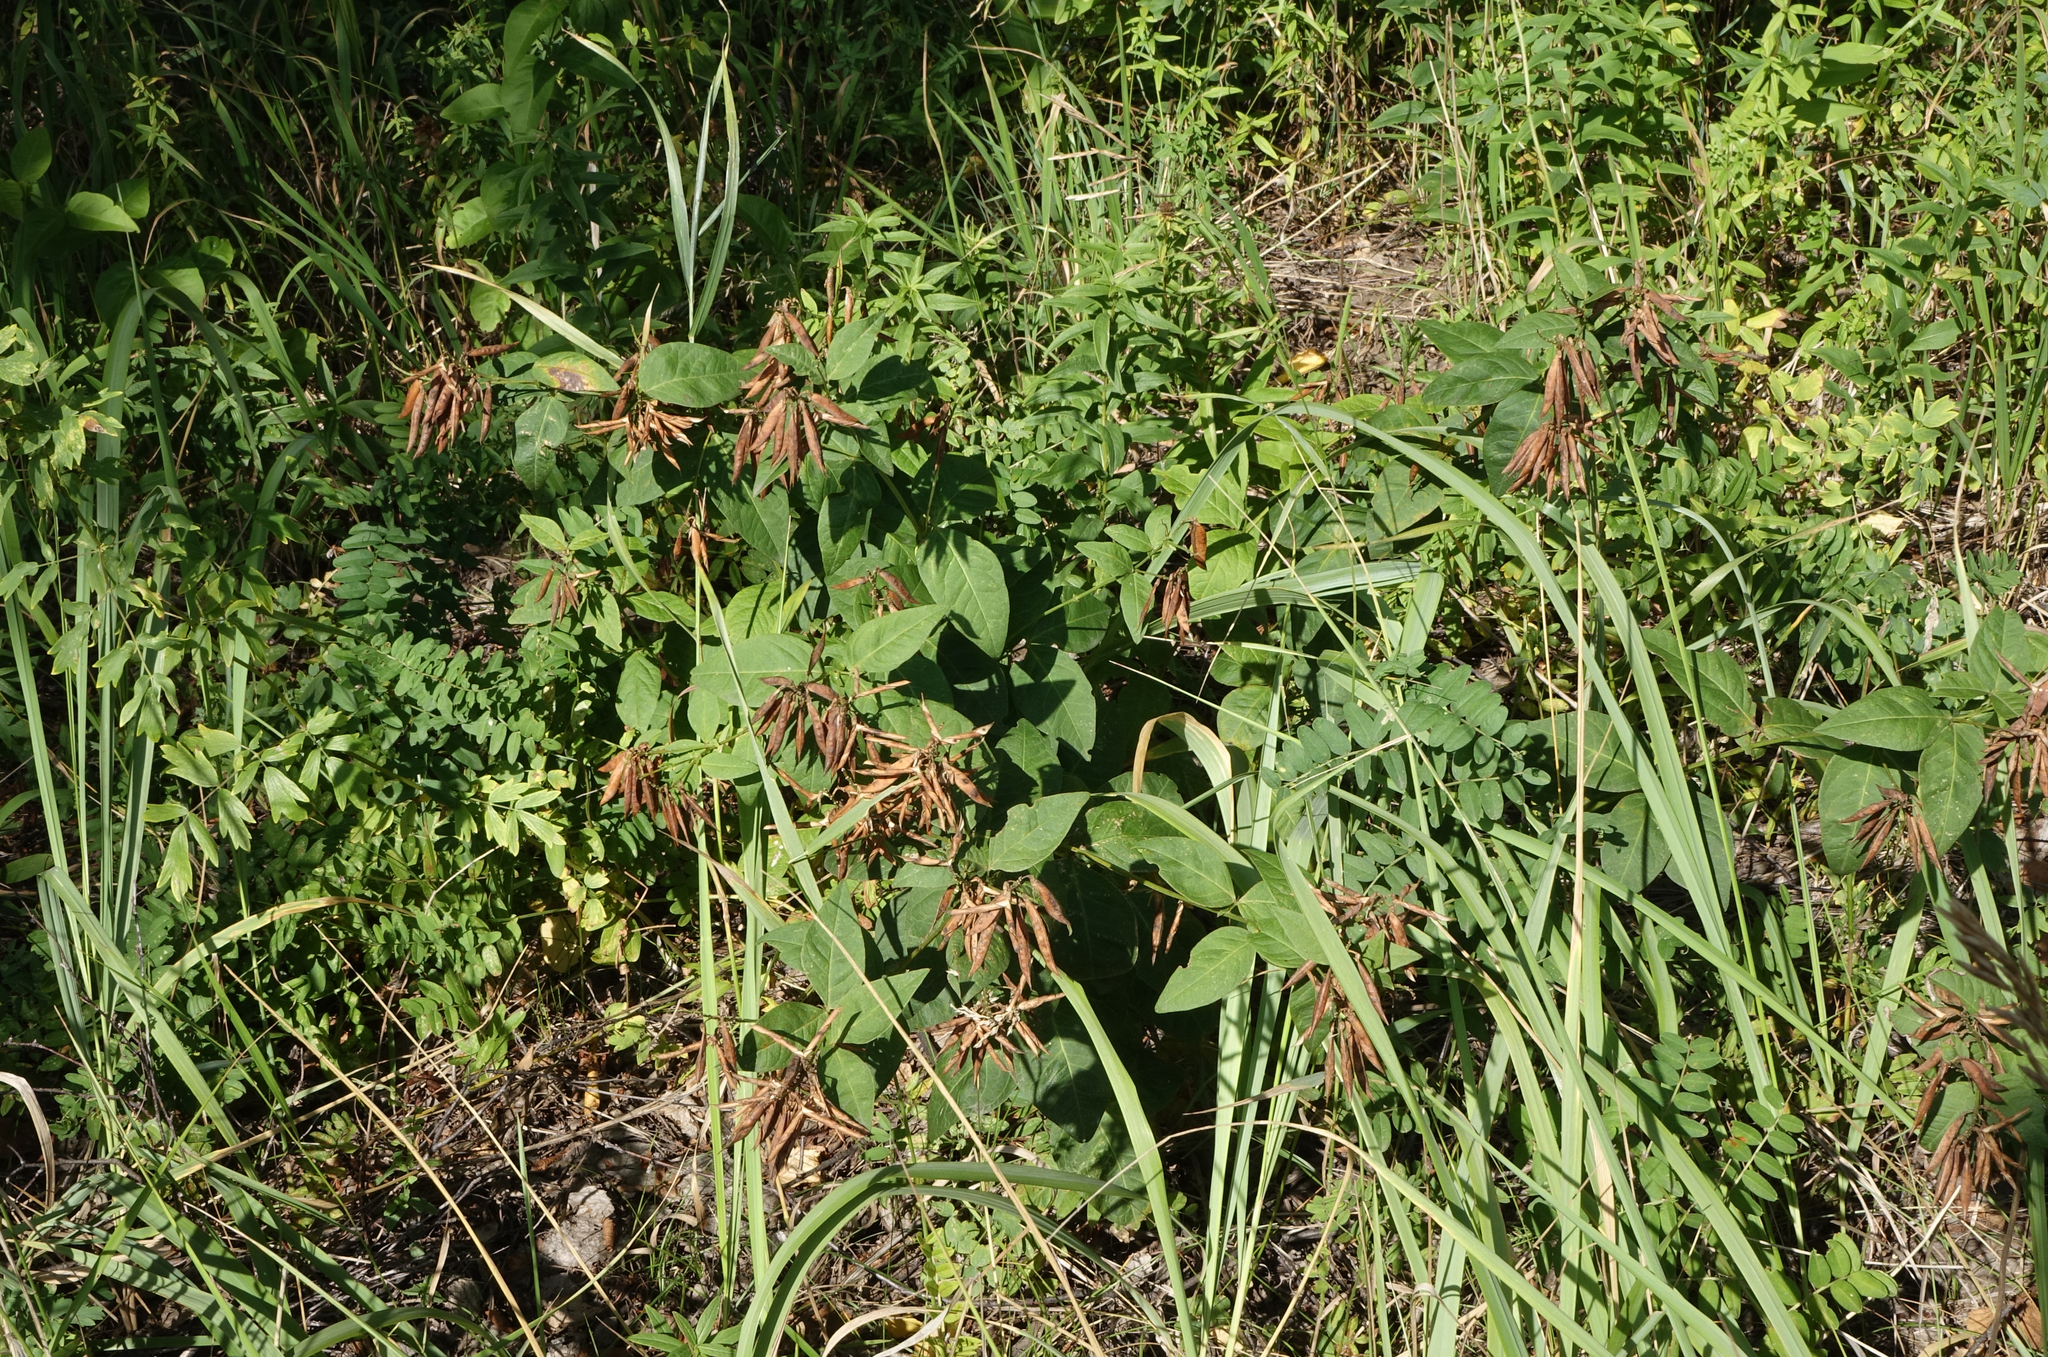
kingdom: Plantae
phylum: Tracheophyta
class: Magnoliopsida
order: Fabales
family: Fabaceae
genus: Vicia
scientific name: Vicia unijuga
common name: Two-leaf vetch
